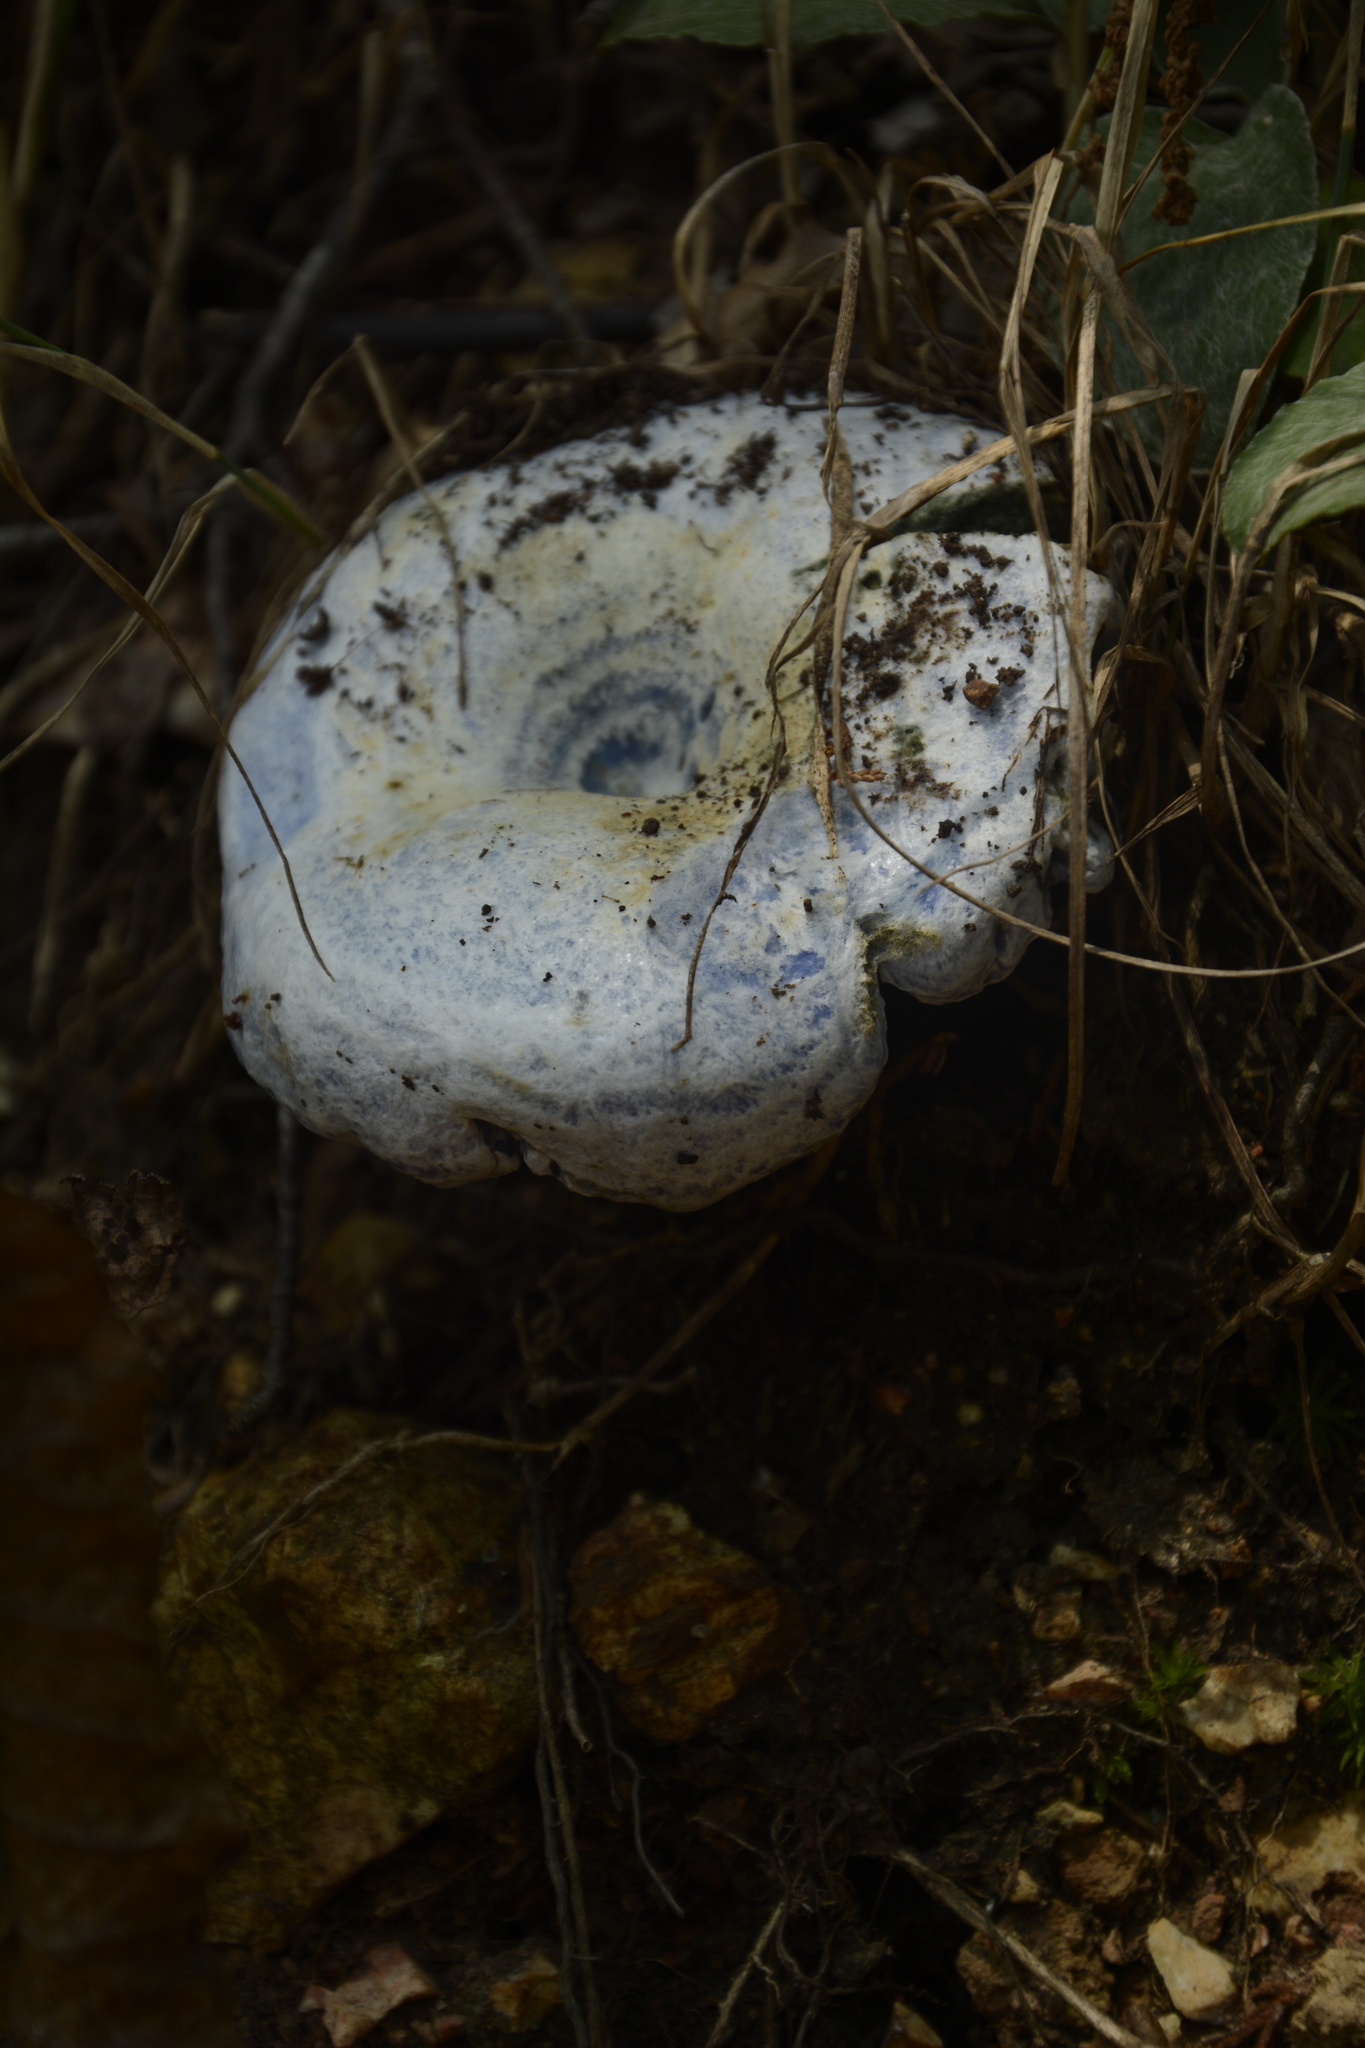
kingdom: Fungi
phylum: Basidiomycota
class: Agaricomycetes
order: Russulales
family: Russulaceae
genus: Lactarius
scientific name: Lactarius indigo
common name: Indigo milk cap
